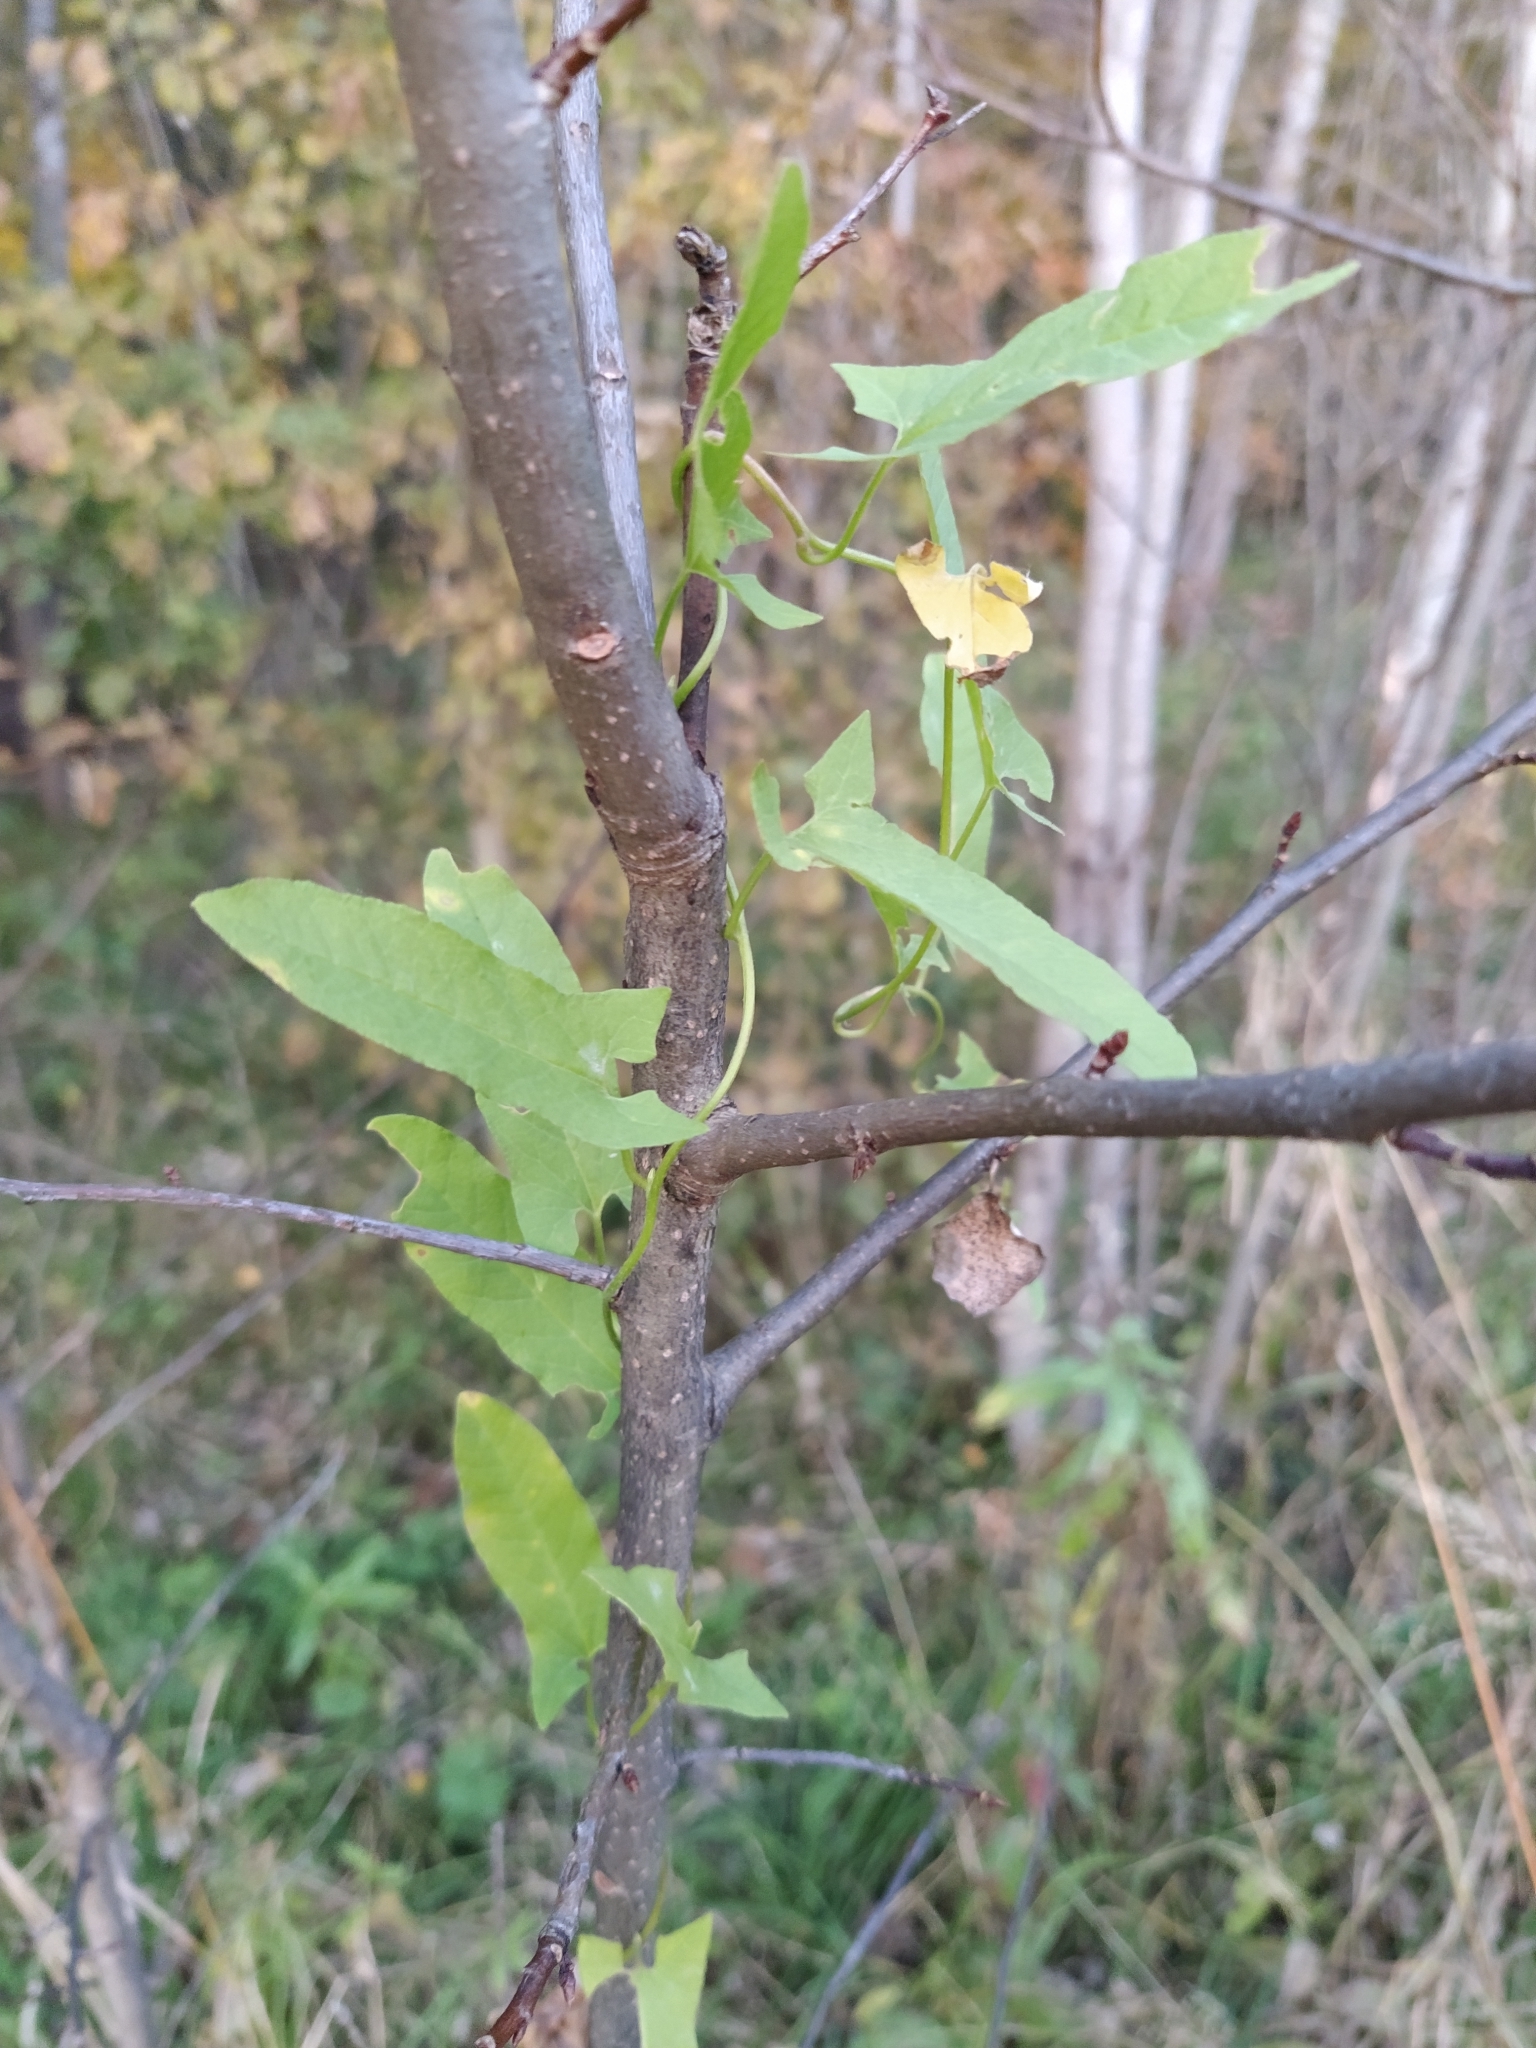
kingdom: Plantae
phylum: Tracheophyta
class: Magnoliopsida
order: Solanales
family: Convolvulaceae
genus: Convolvulus
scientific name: Convolvulus arvensis
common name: Field bindweed
